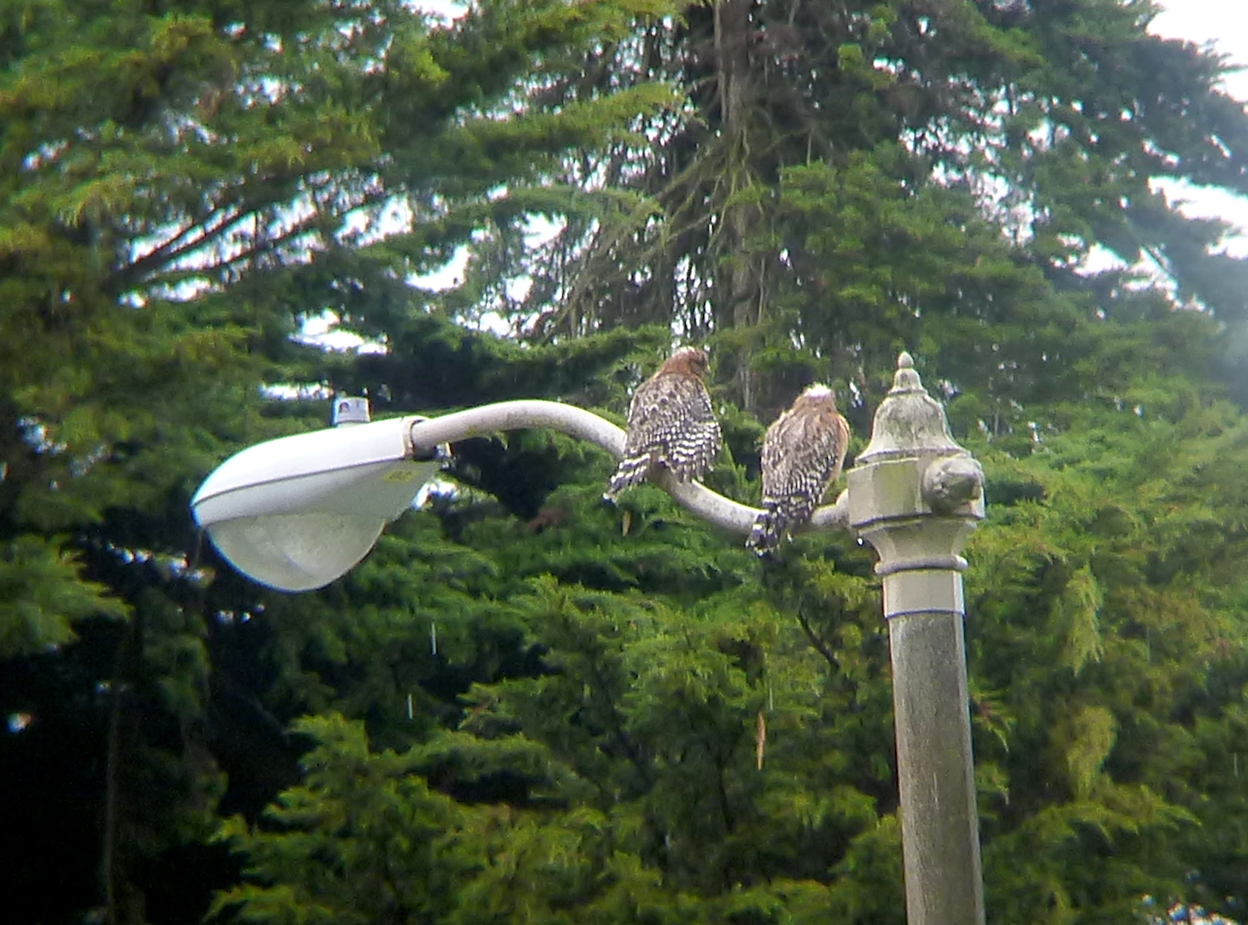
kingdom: Animalia
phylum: Chordata
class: Aves
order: Accipitriformes
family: Accipitridae
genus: Buteo
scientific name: Buteo lineatus
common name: Red-shouldered hawk
